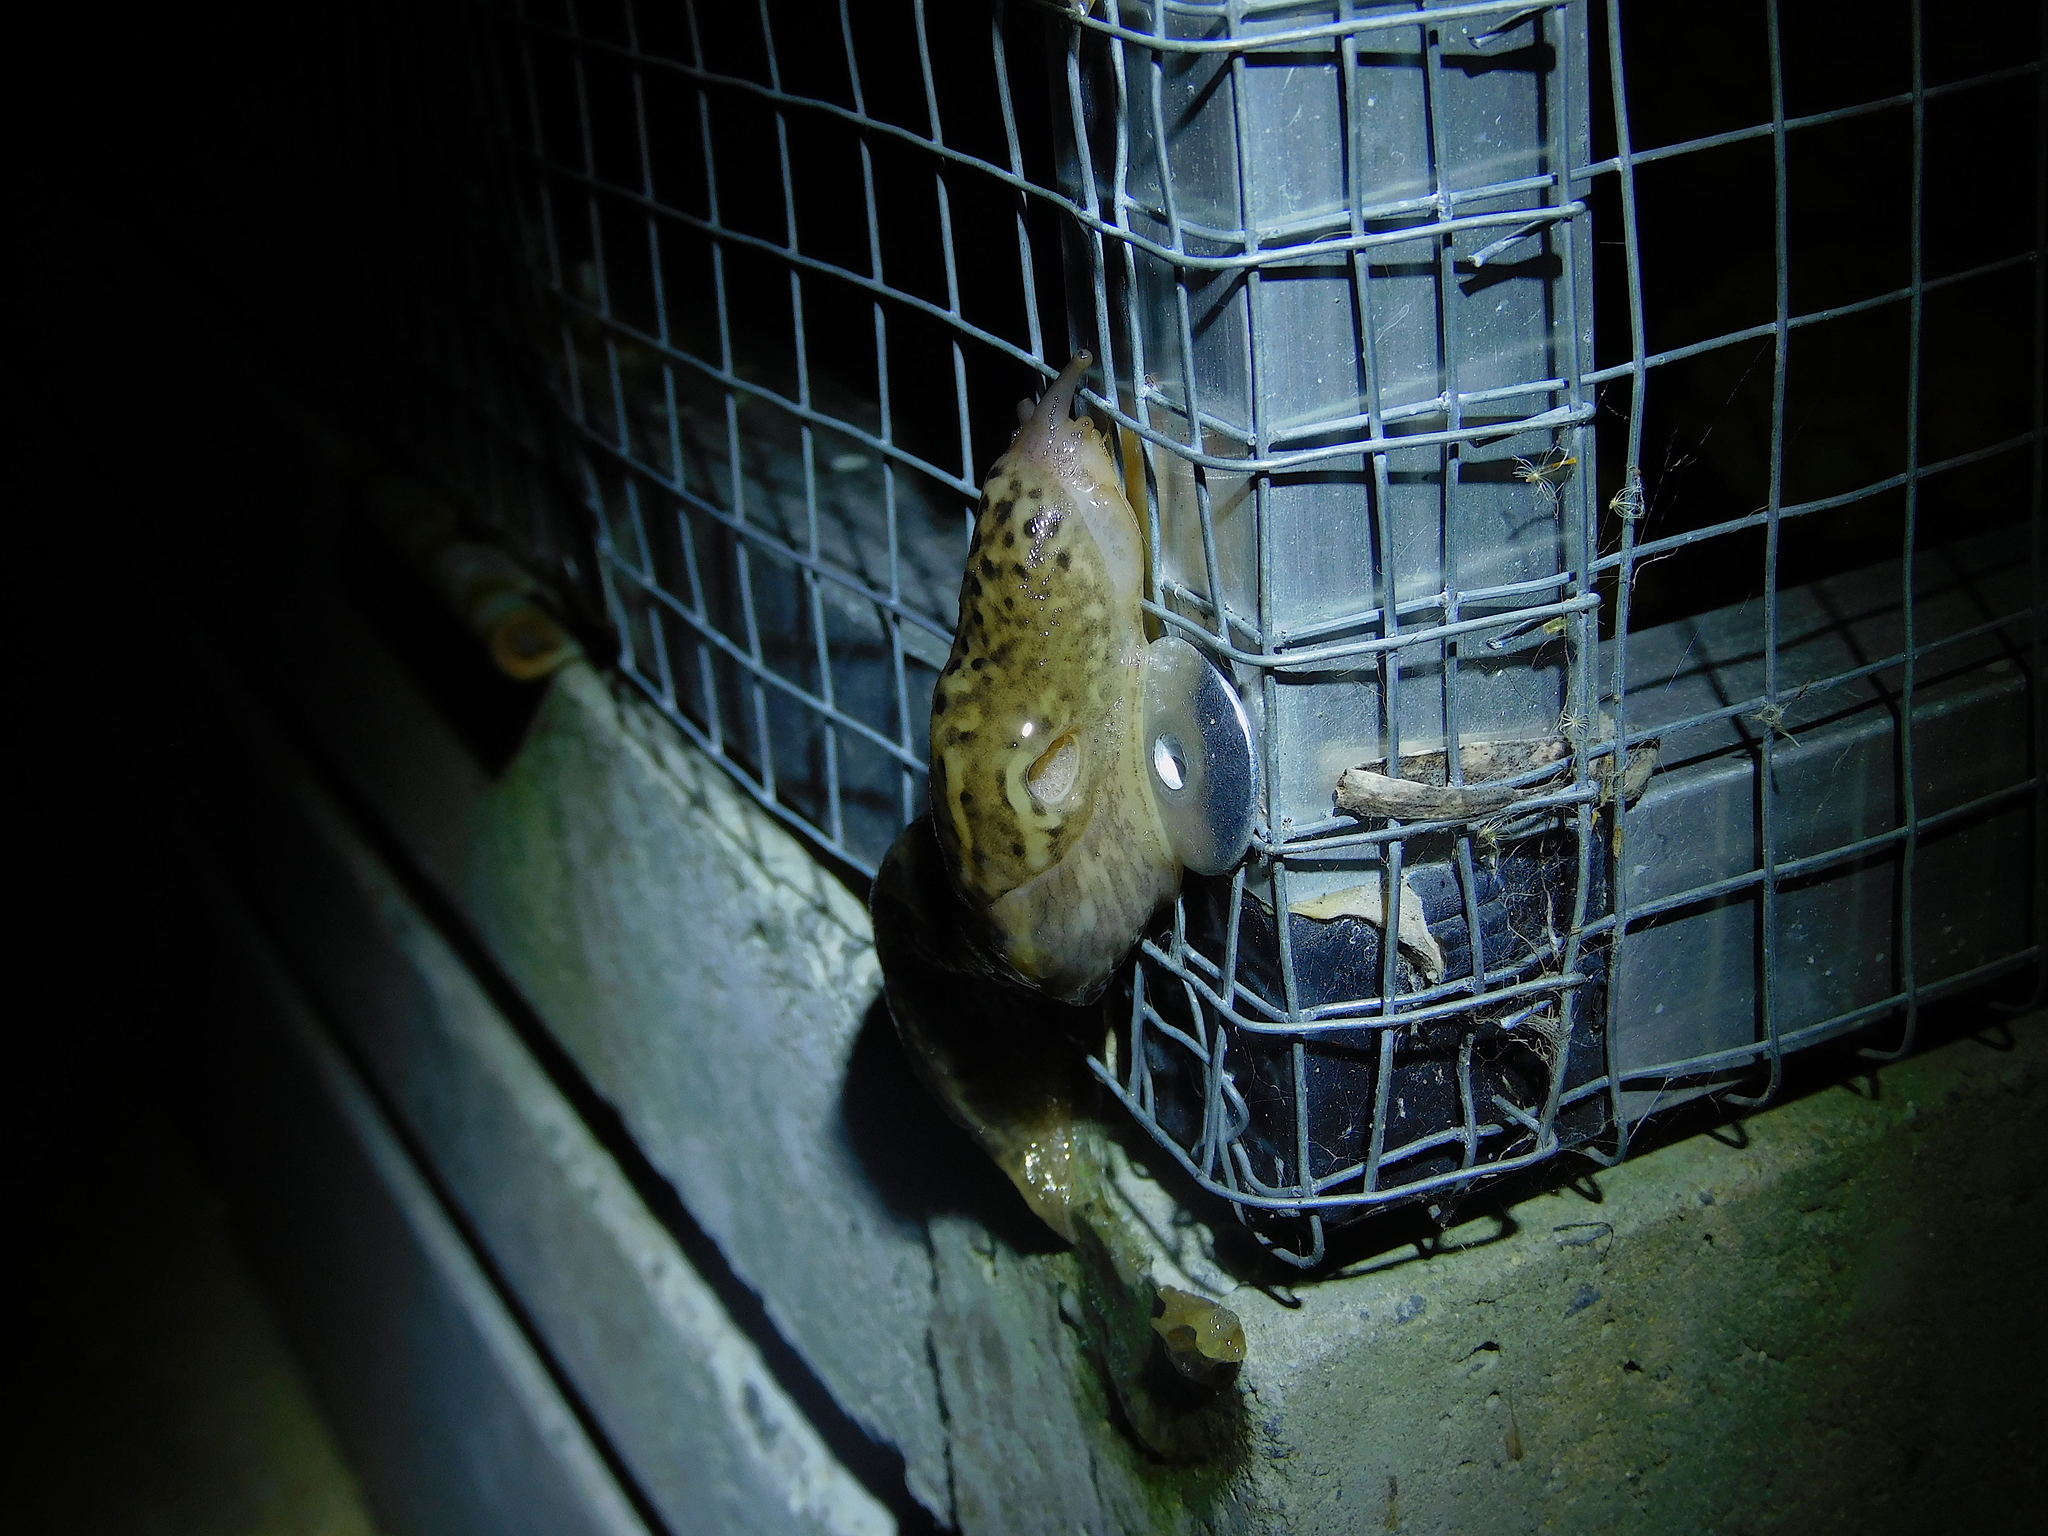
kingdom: Animalia
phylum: Mollusca
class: Gastropoda
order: Stylommatophora
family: Limacidae
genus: Limax
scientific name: Limax maximus
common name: Great grey slug
